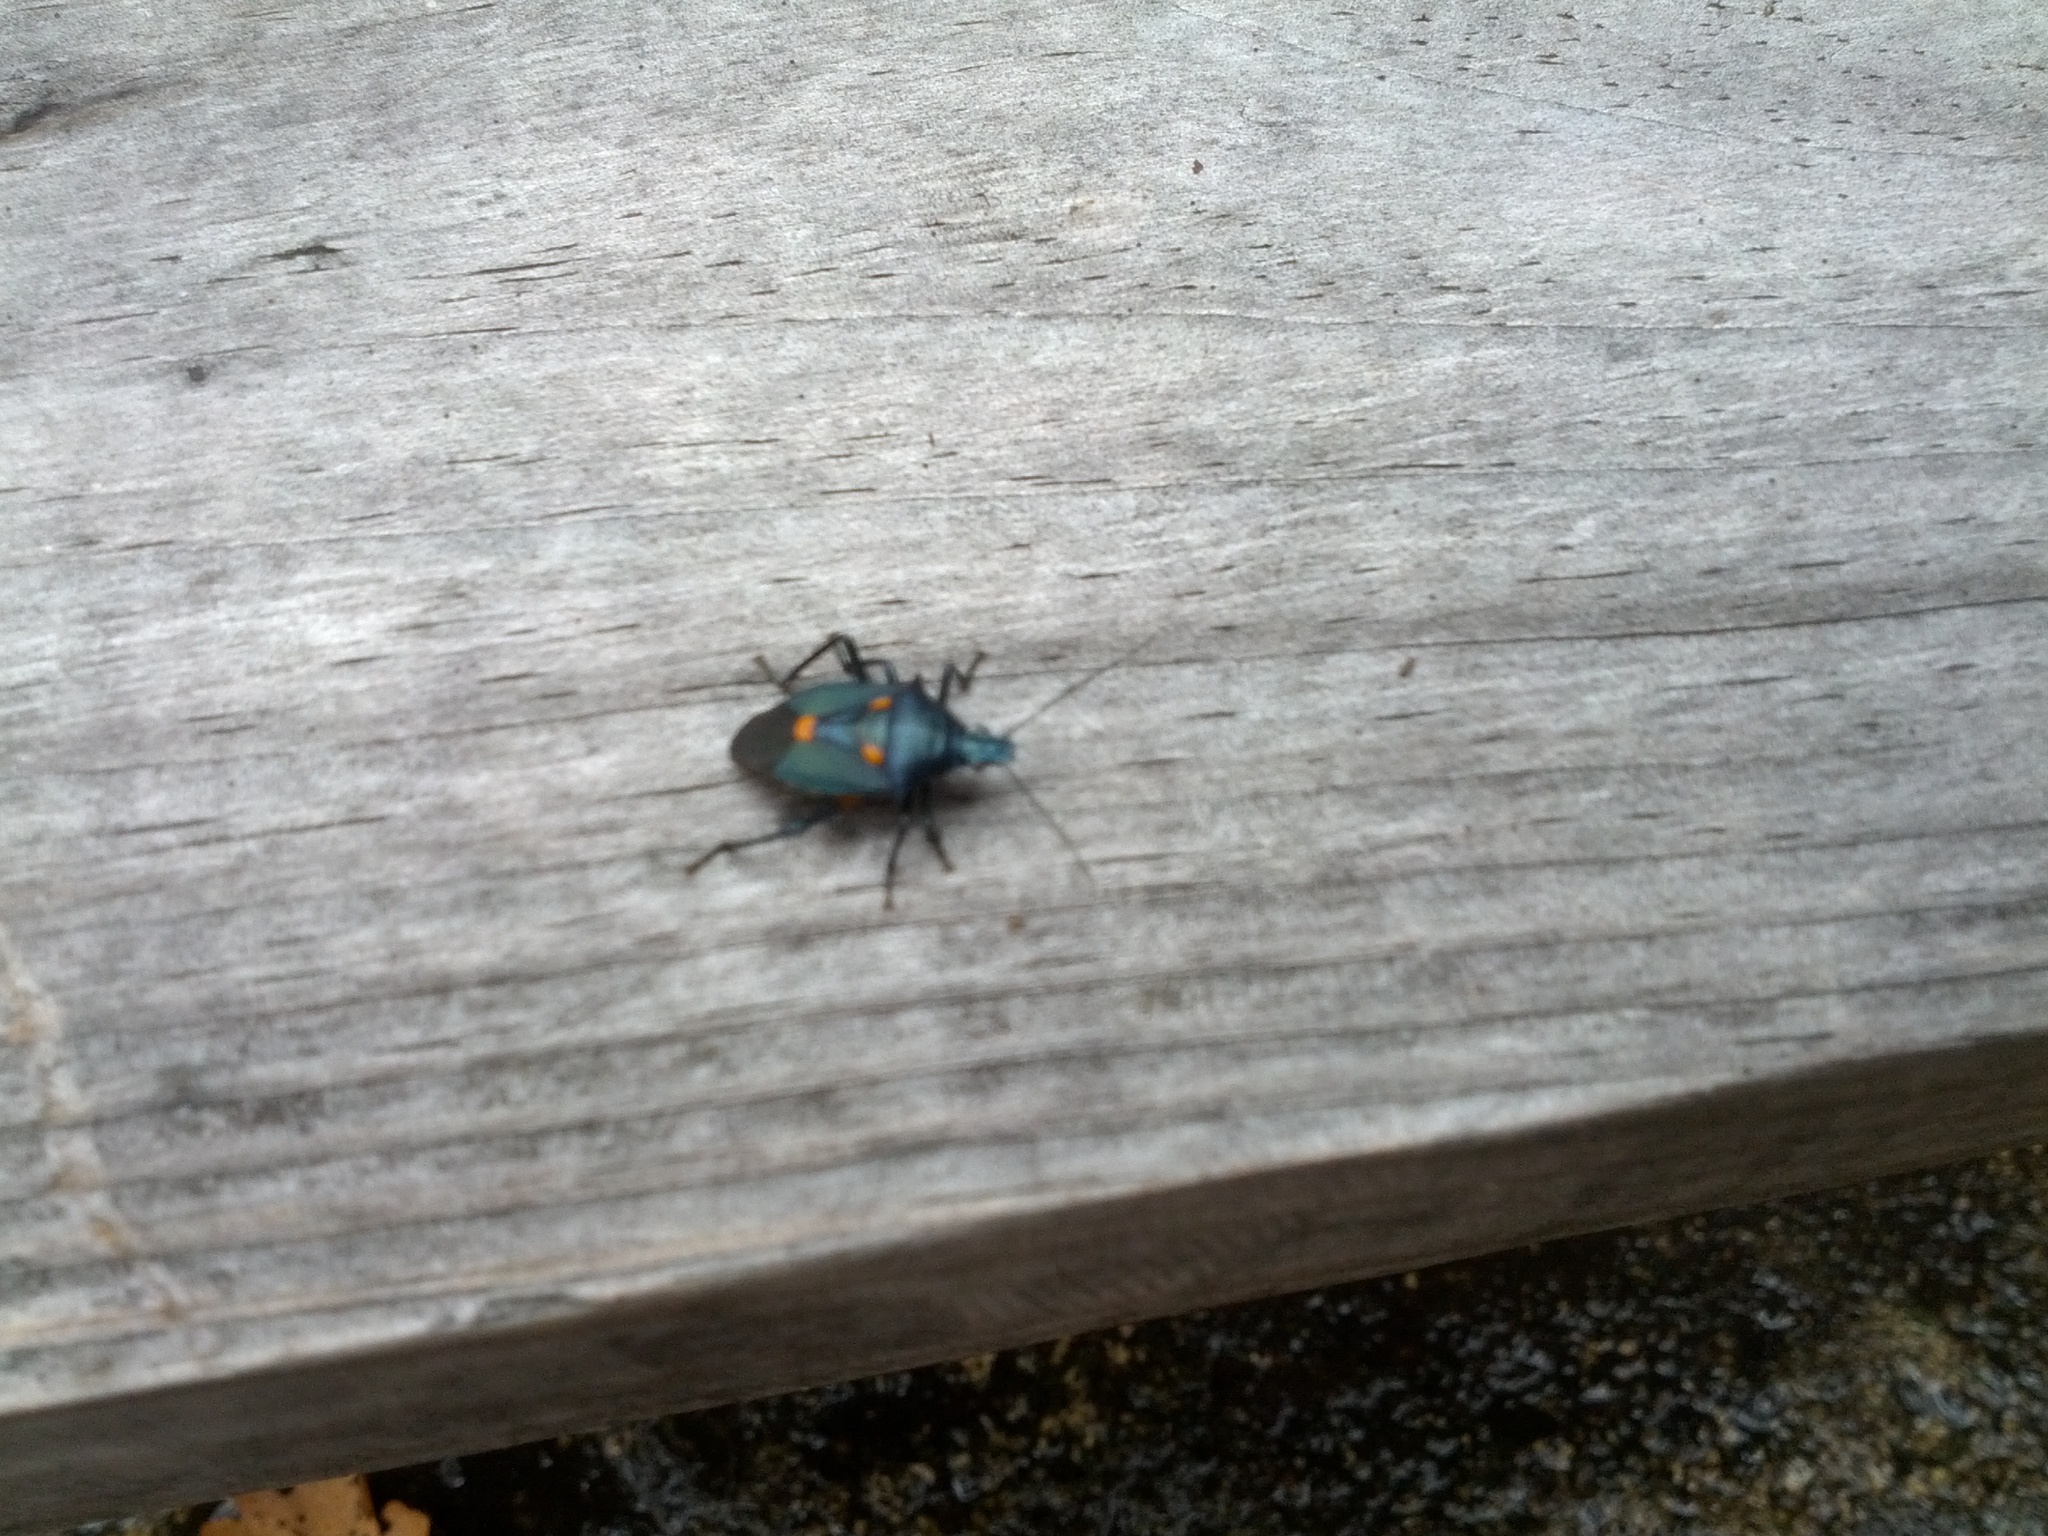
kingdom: Animalia
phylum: Arthropoda
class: Insecta
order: Hemiptera
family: Pentatomidae
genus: Euthyrhynchus
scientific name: Euthyrhynchus floridanus
